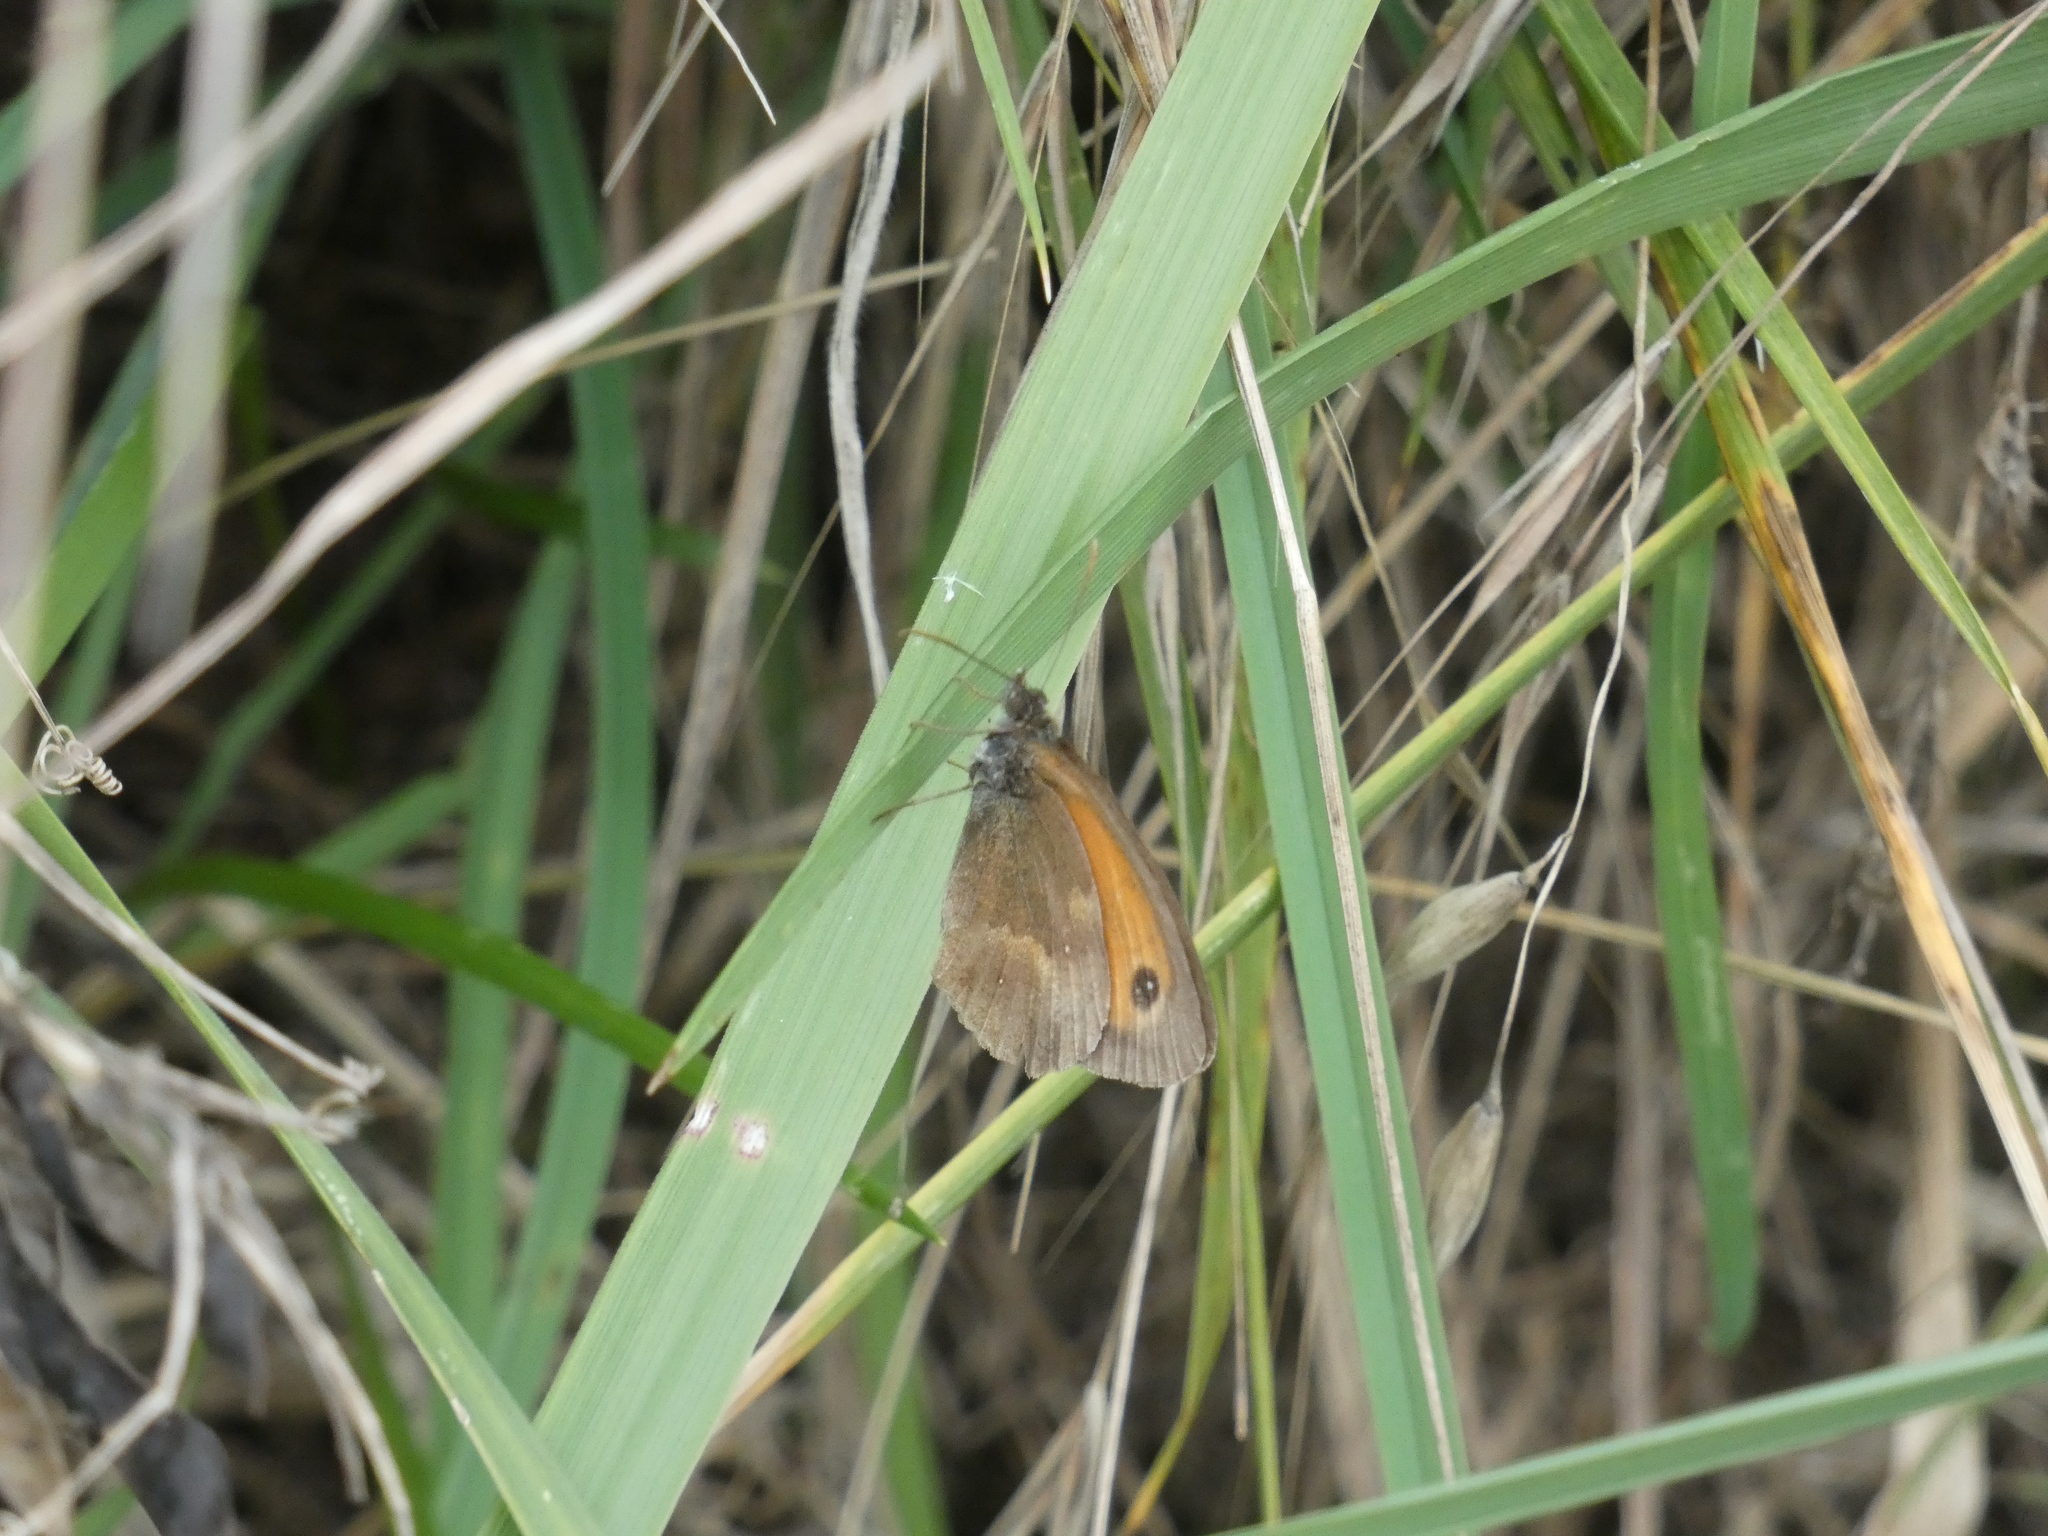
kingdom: Animalia
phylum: Arthropoda
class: Insecta
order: Lepidoptera
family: Nymphalidae
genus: Pyronia
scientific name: Pyronia tithonus
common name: Gatekeeper
